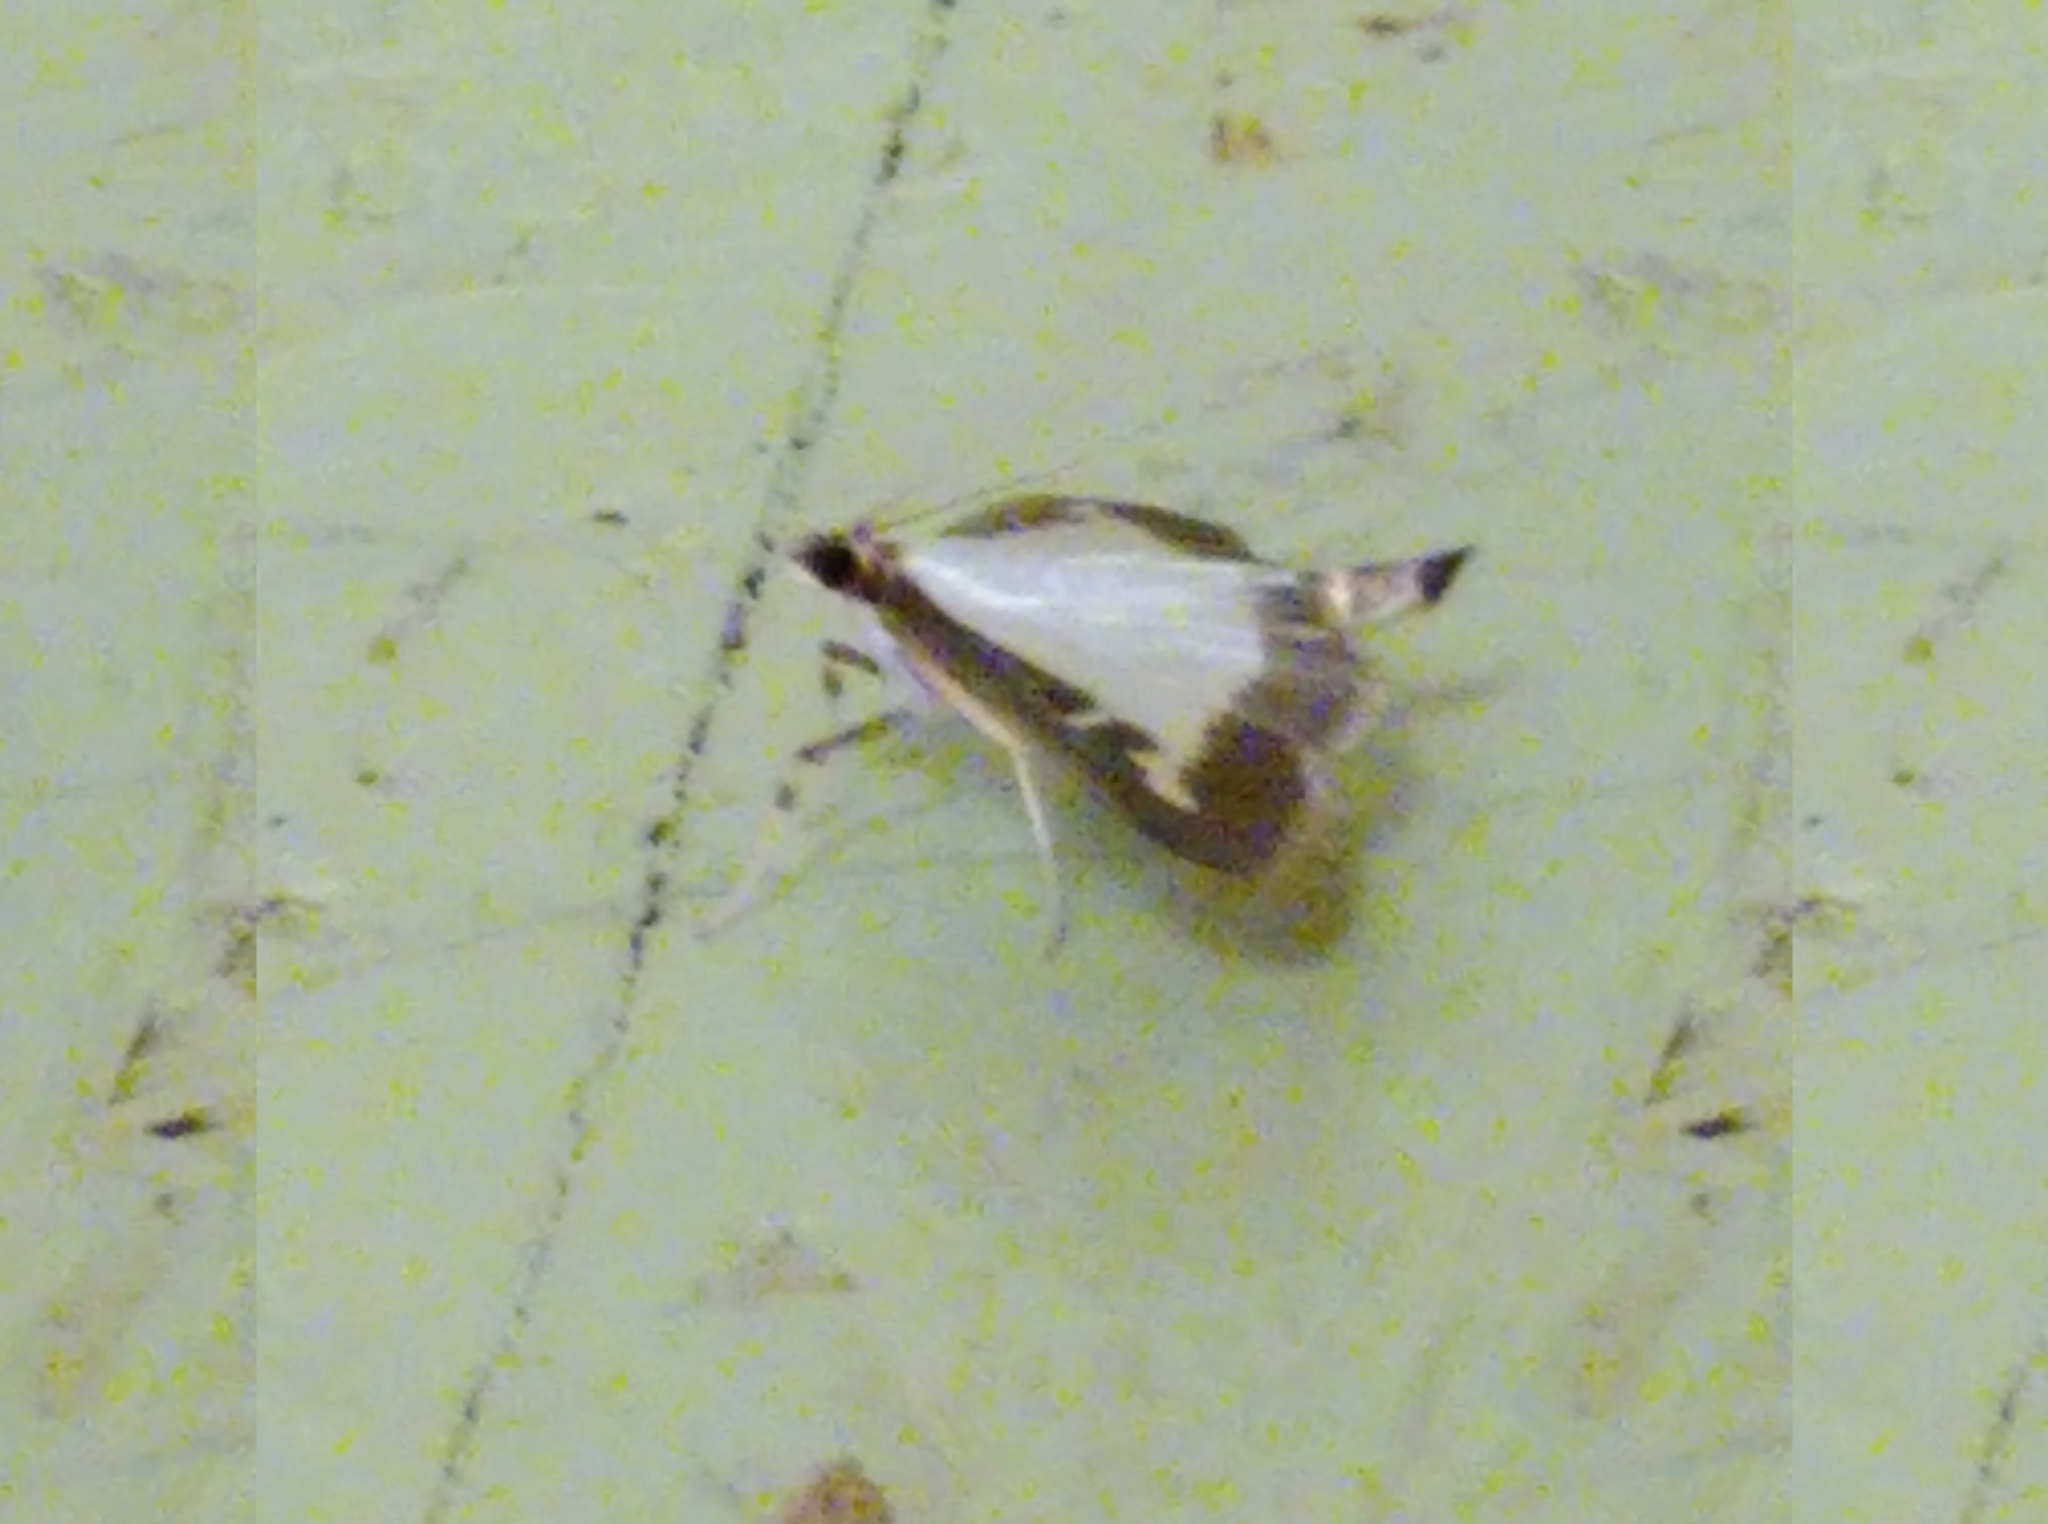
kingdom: Animalia
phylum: Arthropoda
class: Insecta
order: Lepidoptera
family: Crambidae
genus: Cydalima
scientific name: Cydalima perspectalis
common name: Box tree moth
